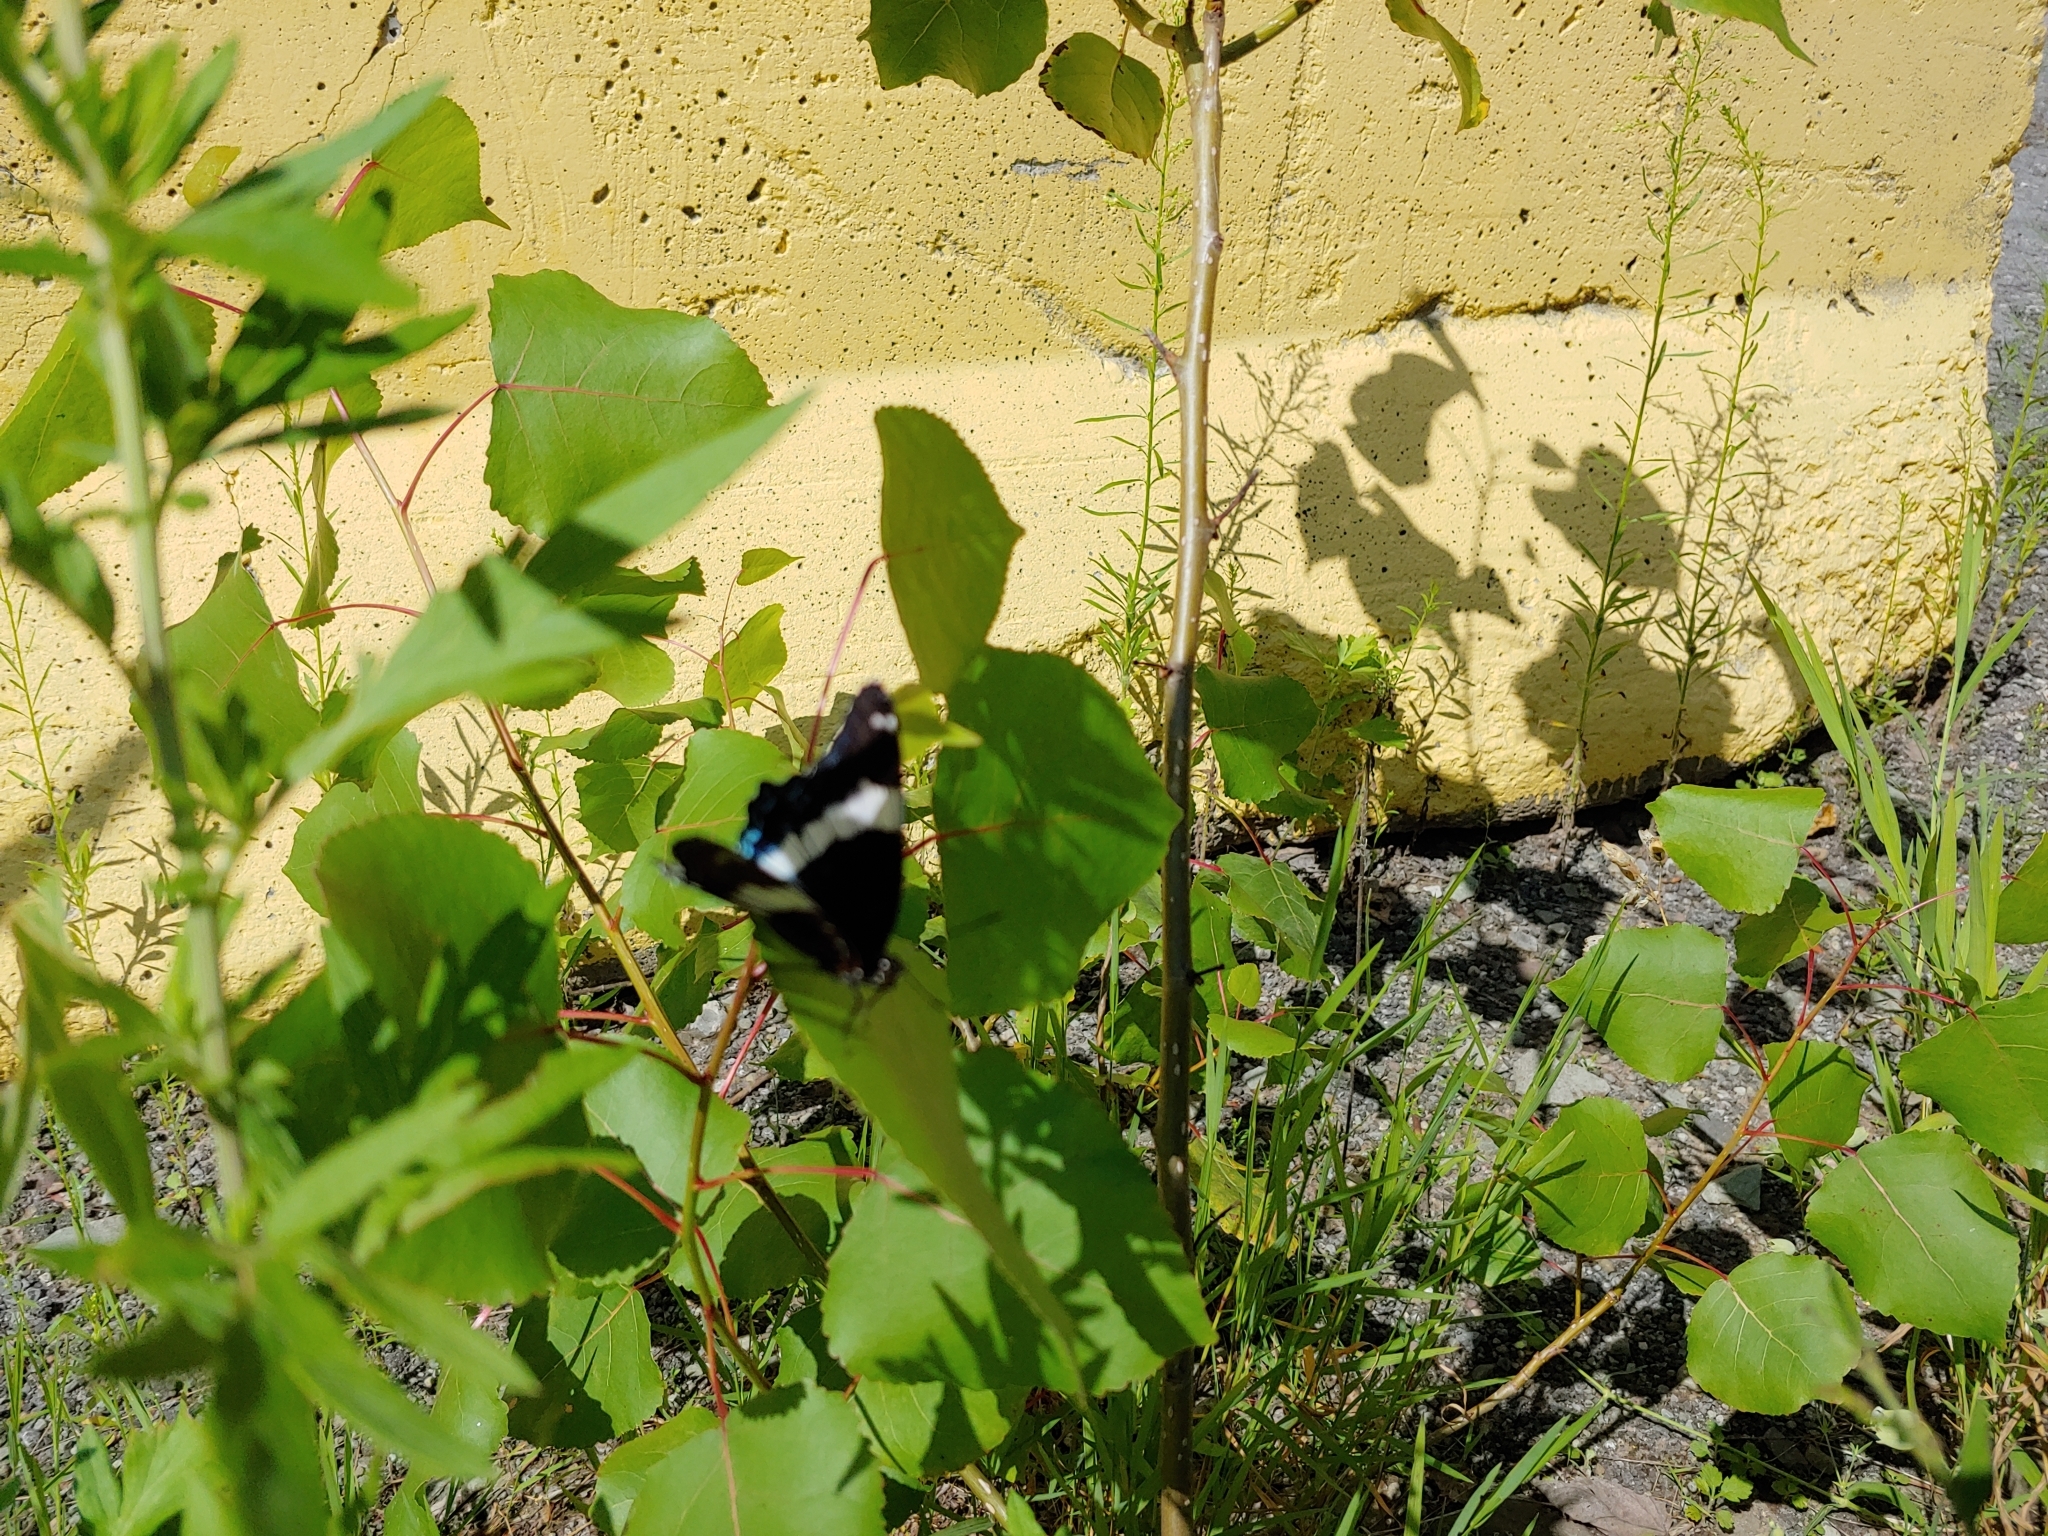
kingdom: Animalia
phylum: Arthropoda
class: Insecta
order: Lepidoptera
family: Nymphalidae
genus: Limenitis
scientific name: Limenitis arthemis
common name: Red-spotted admiral
